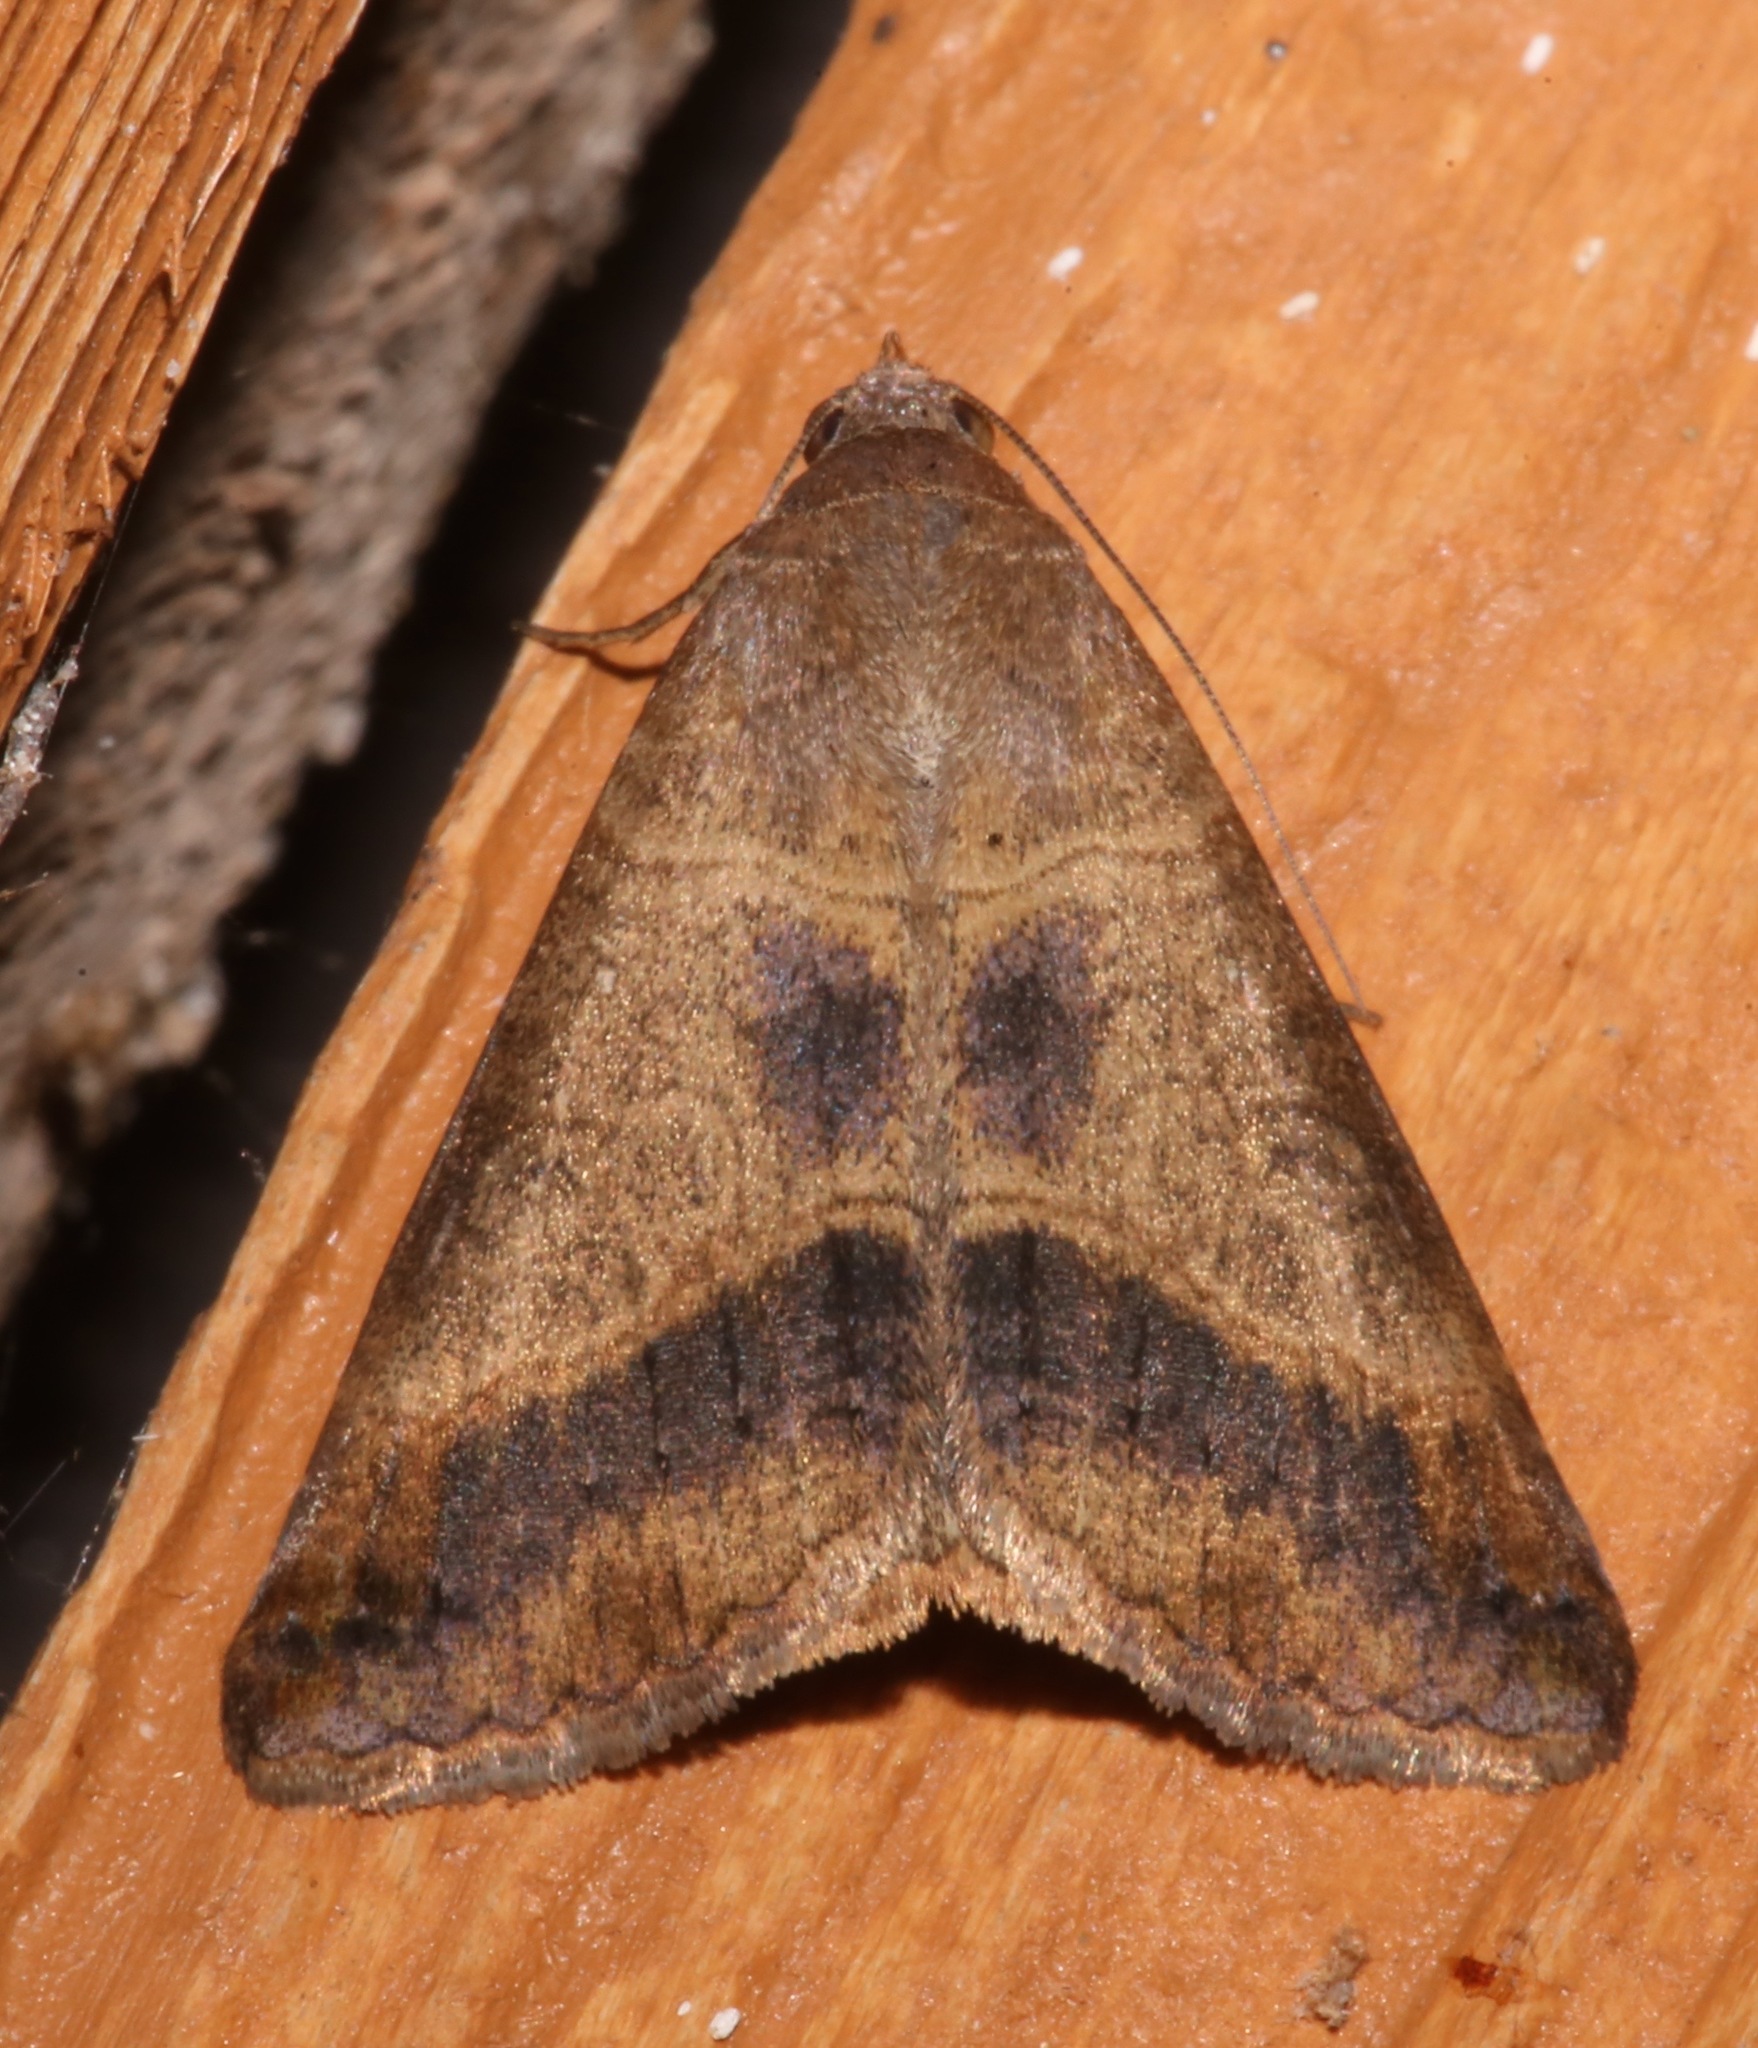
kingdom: Animalia
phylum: Arthropoda
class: Insecta
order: Lepidoptera
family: Erebidae
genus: Mocis
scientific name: Mocis latipes
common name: Striped grass looper
